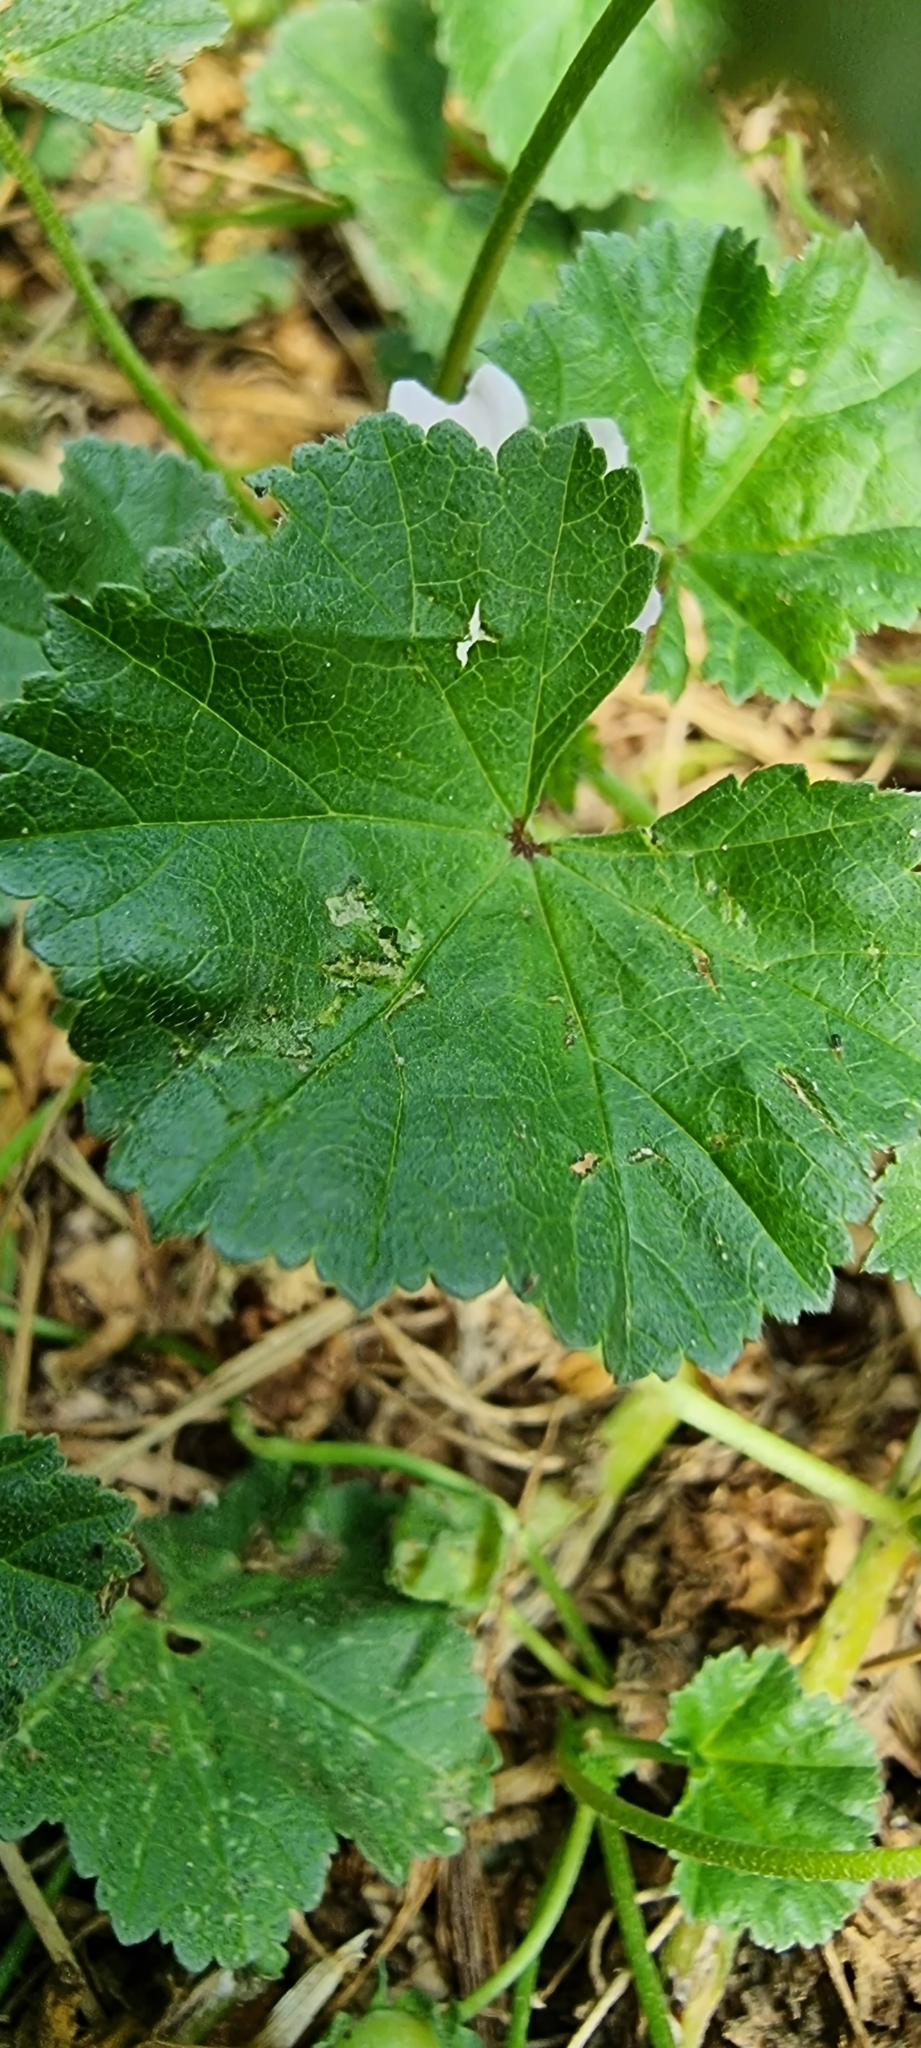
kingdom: Plantae
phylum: Tracheophyta
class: Magnoliopsida
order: Malvales
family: Malvaceae
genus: Malva
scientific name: Malva neglecta
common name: Common mallow
